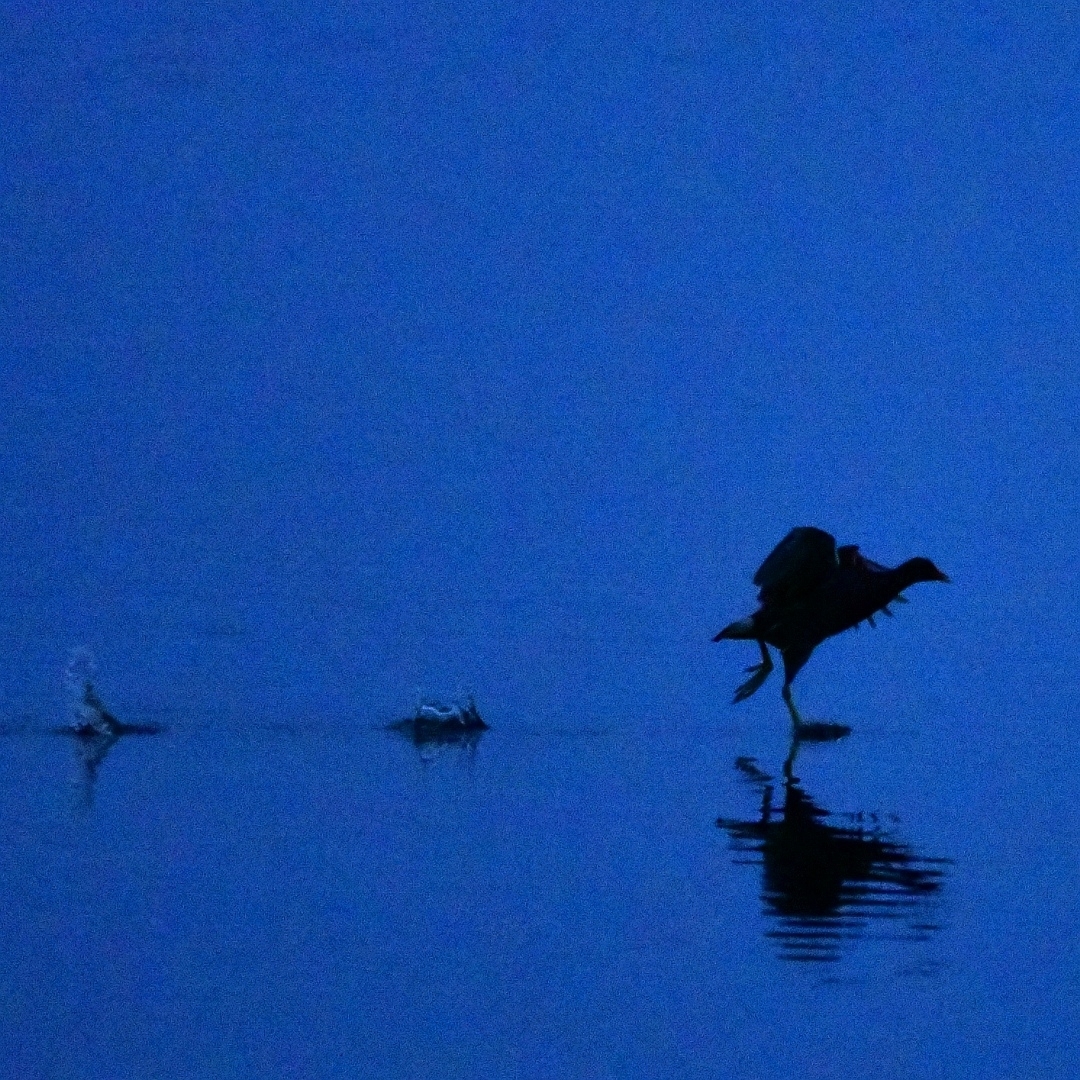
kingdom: Animalia
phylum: Chordata
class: Aves
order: Gruiformes
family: Rallidae
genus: Gallinula
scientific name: Gallinula chloropus
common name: Common moorhen
